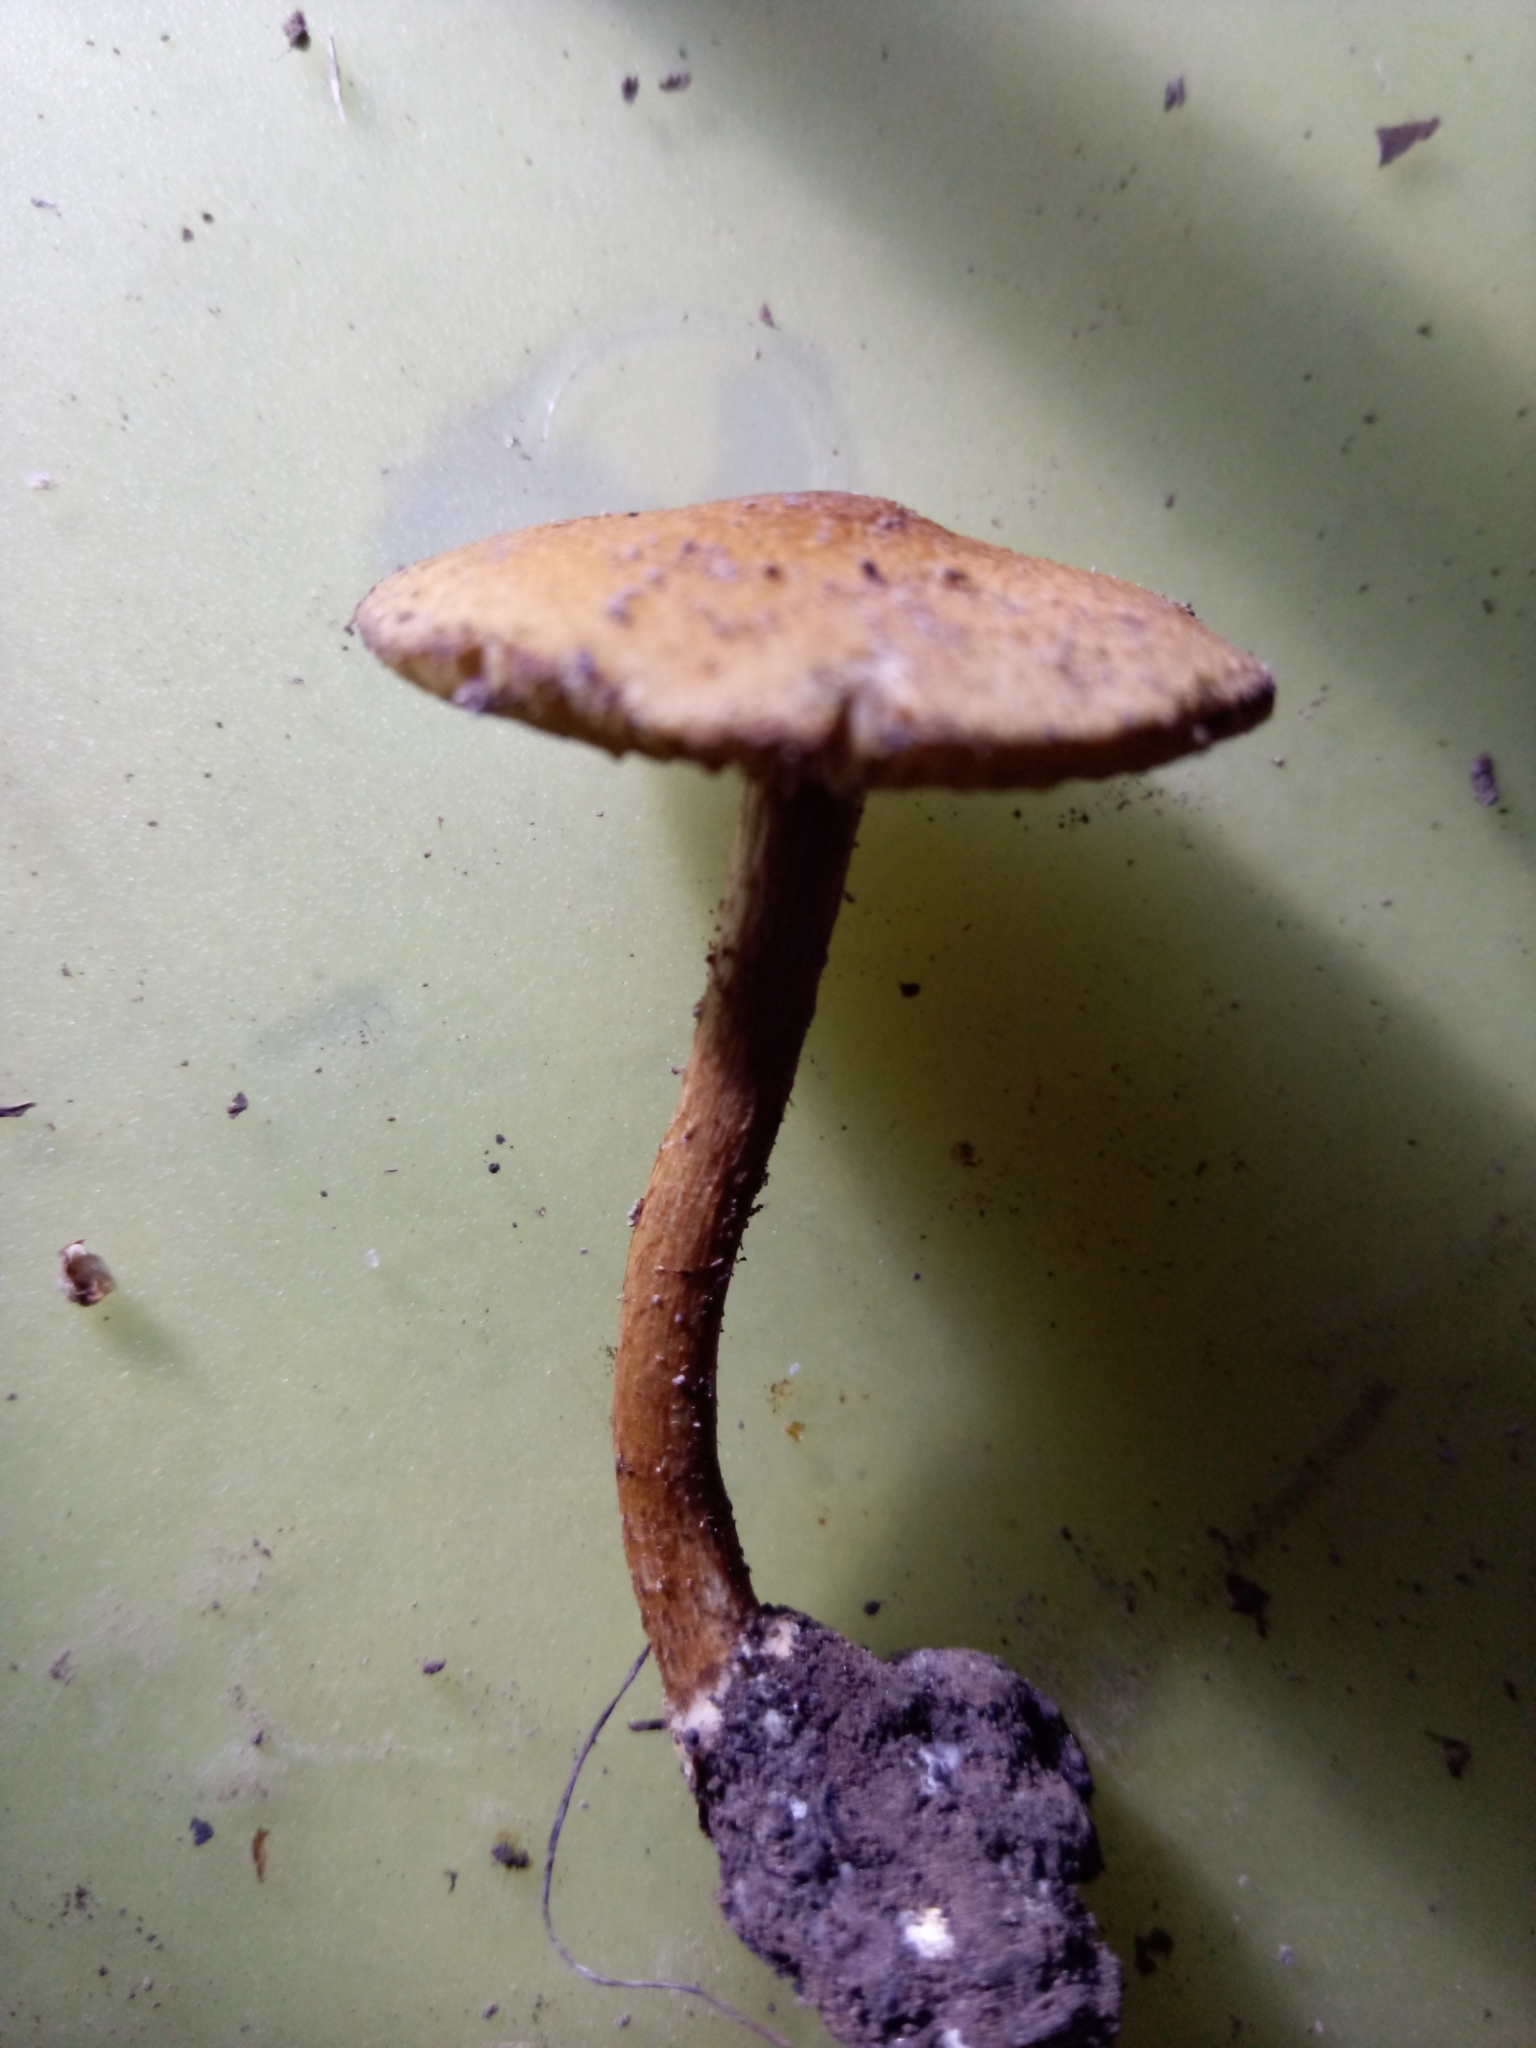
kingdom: Fungi
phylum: Basidiomycota
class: Agaricomycetes
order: Agaricales
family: Inocybaceae
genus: Mallocybe
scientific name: Mallocybe unicolor
